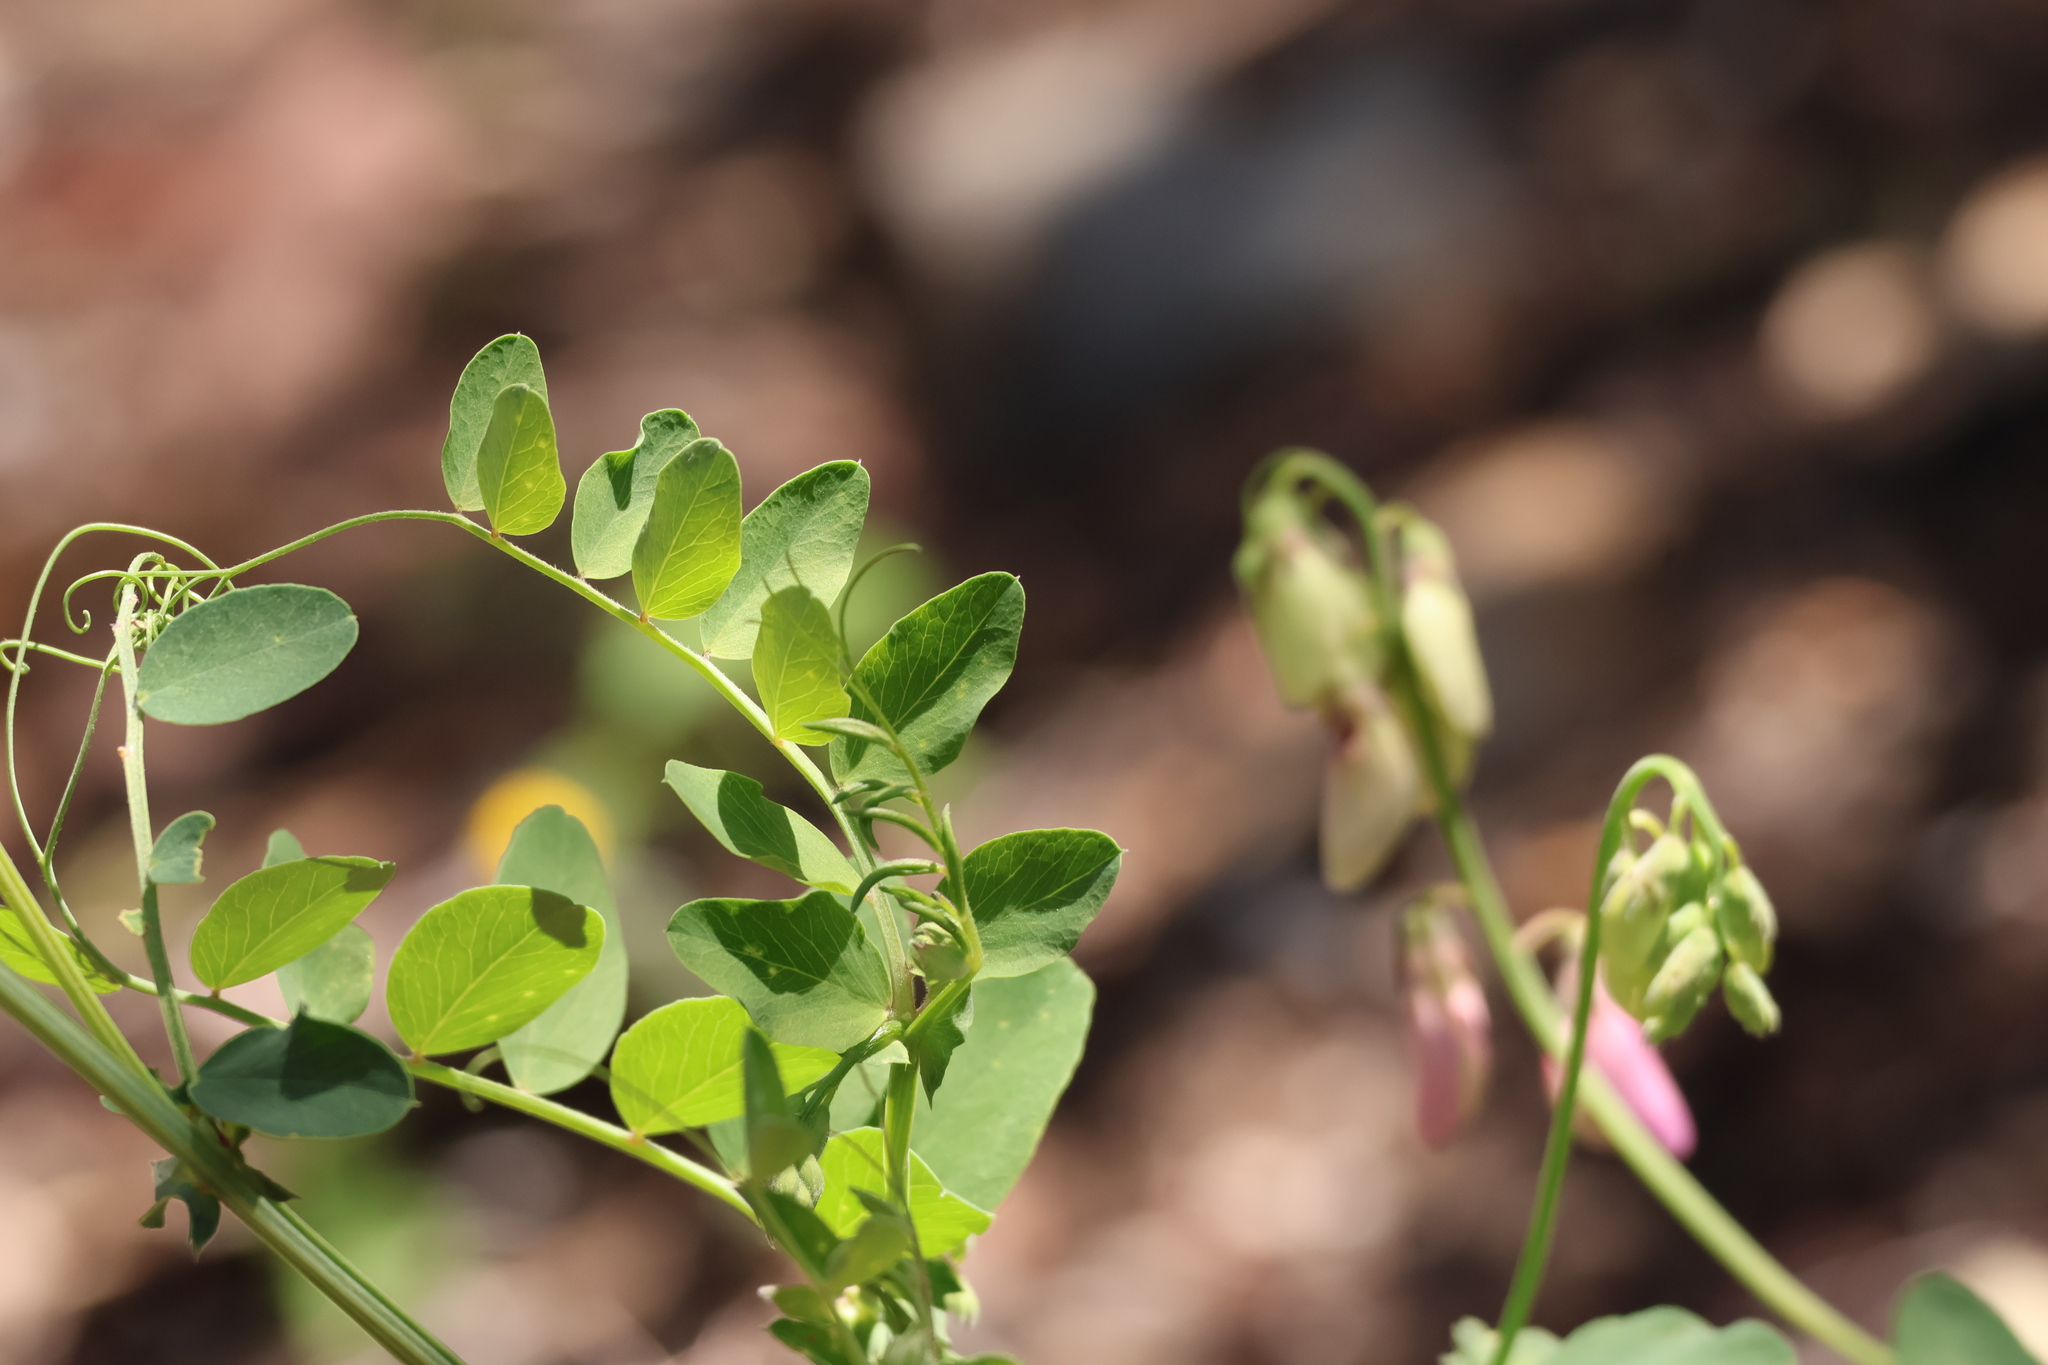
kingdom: Plantae
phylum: Tracheophyta
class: Magnoliopsida
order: Fabales
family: Fabaceae
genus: Lathyrus
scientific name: Lathyrus vestitus
